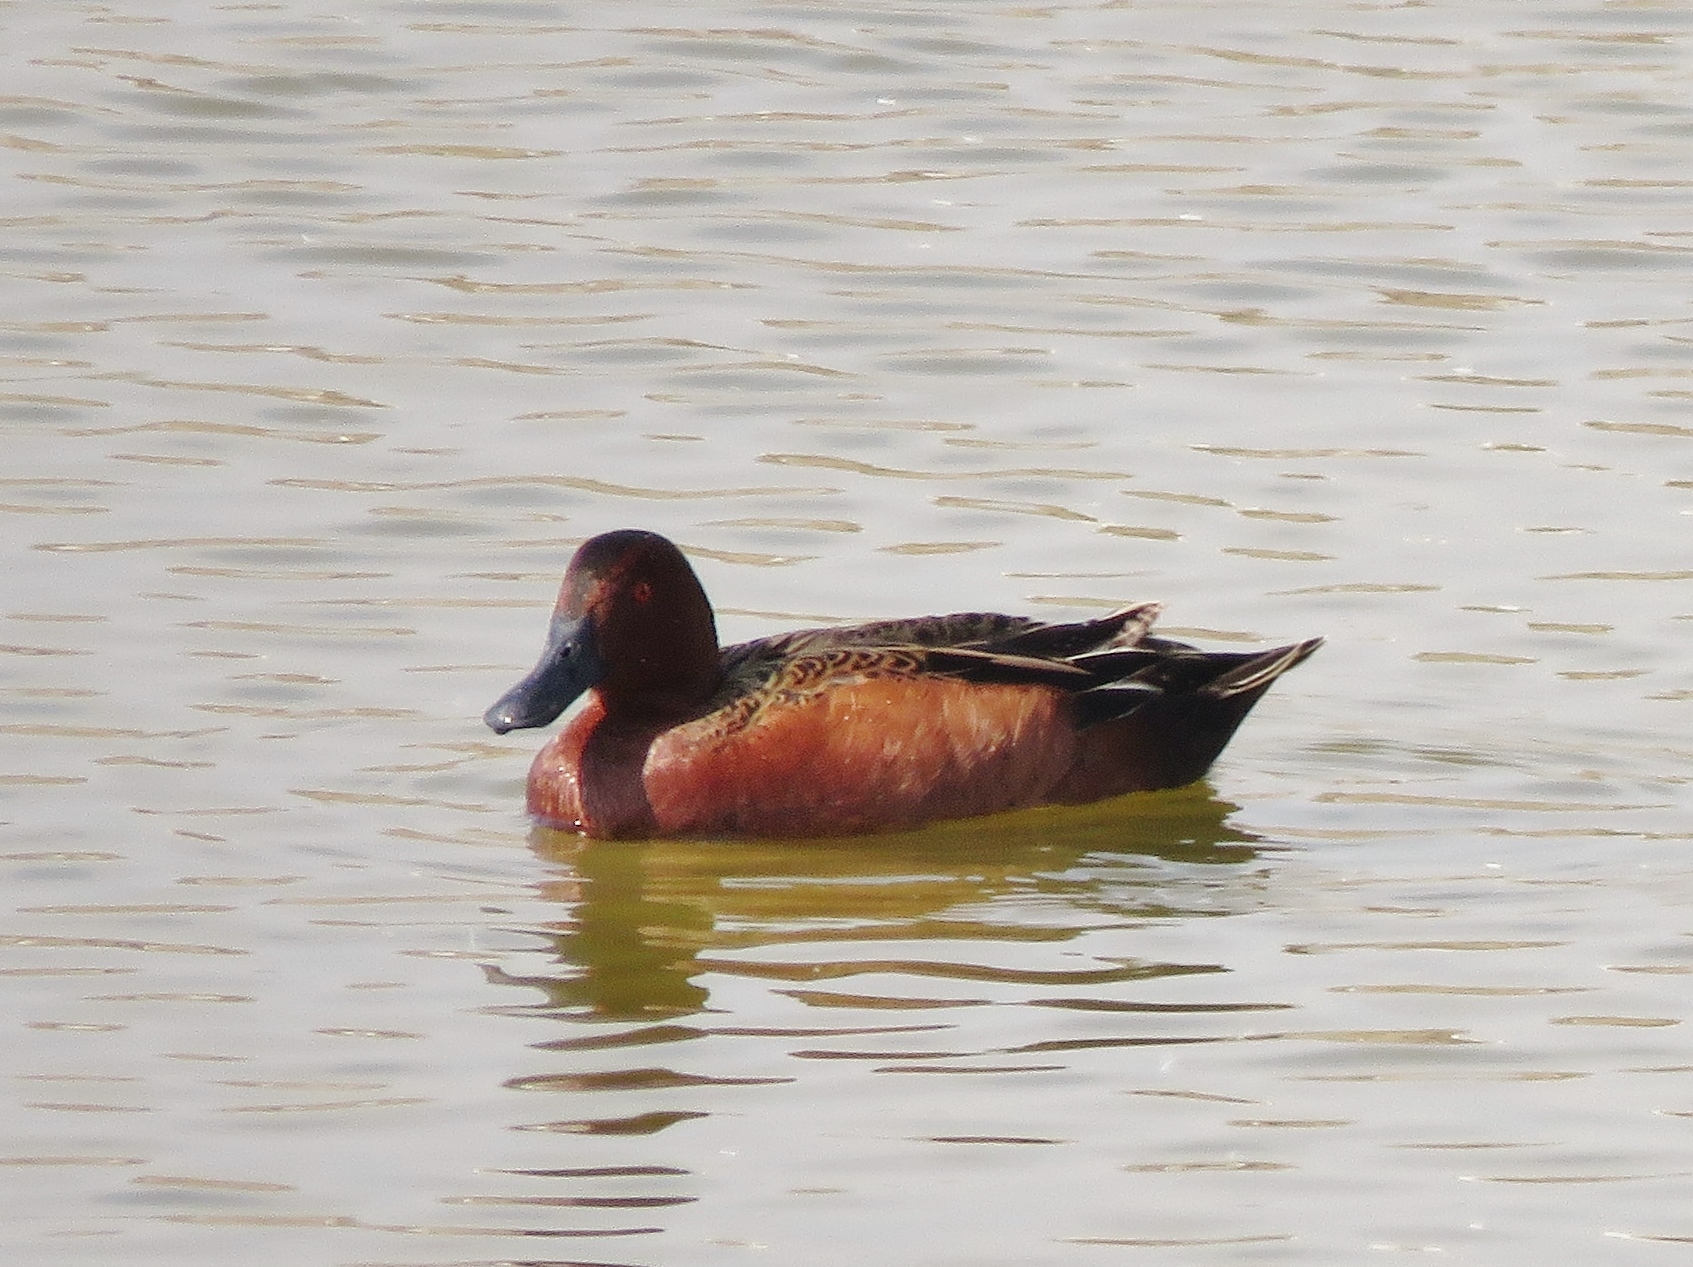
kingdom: Animalia
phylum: Chordata
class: Aves
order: Anseriformes
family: Anatidae
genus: Spatula
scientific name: Spatula cyanoptera
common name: Cinnamon teal
